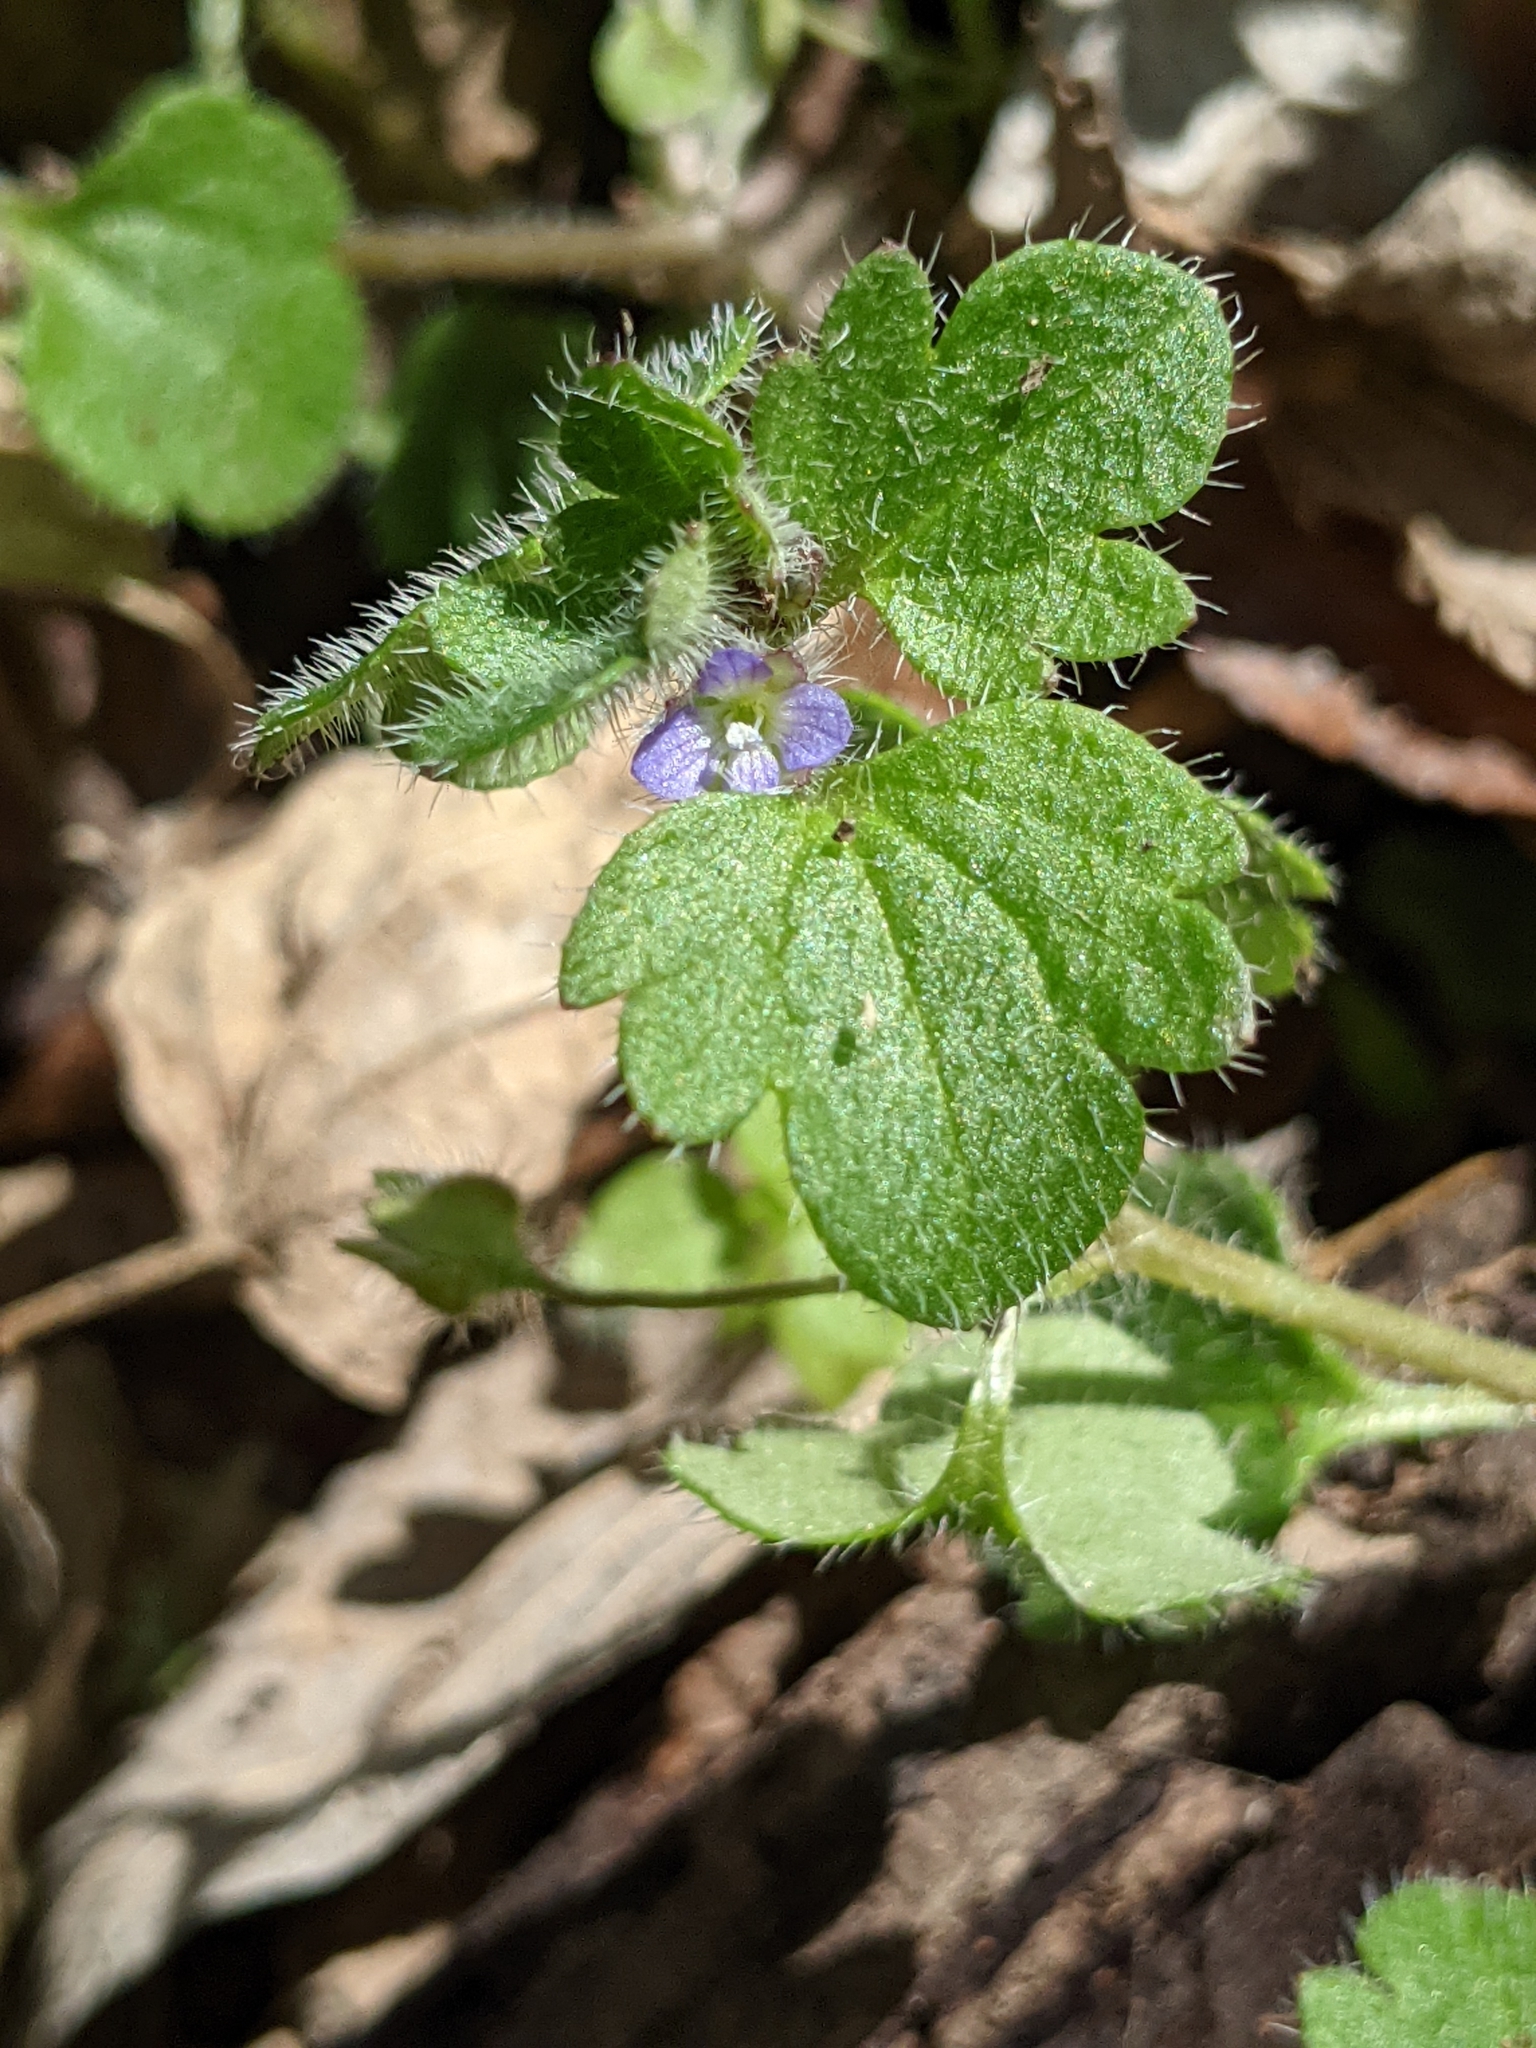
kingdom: Plantae
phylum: Tracheophyta
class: Magnoliopsida
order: Lamiales
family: Plantaginaceae
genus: Veronica
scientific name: Veronica hederifolia
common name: Ivy-leaved speedwell
